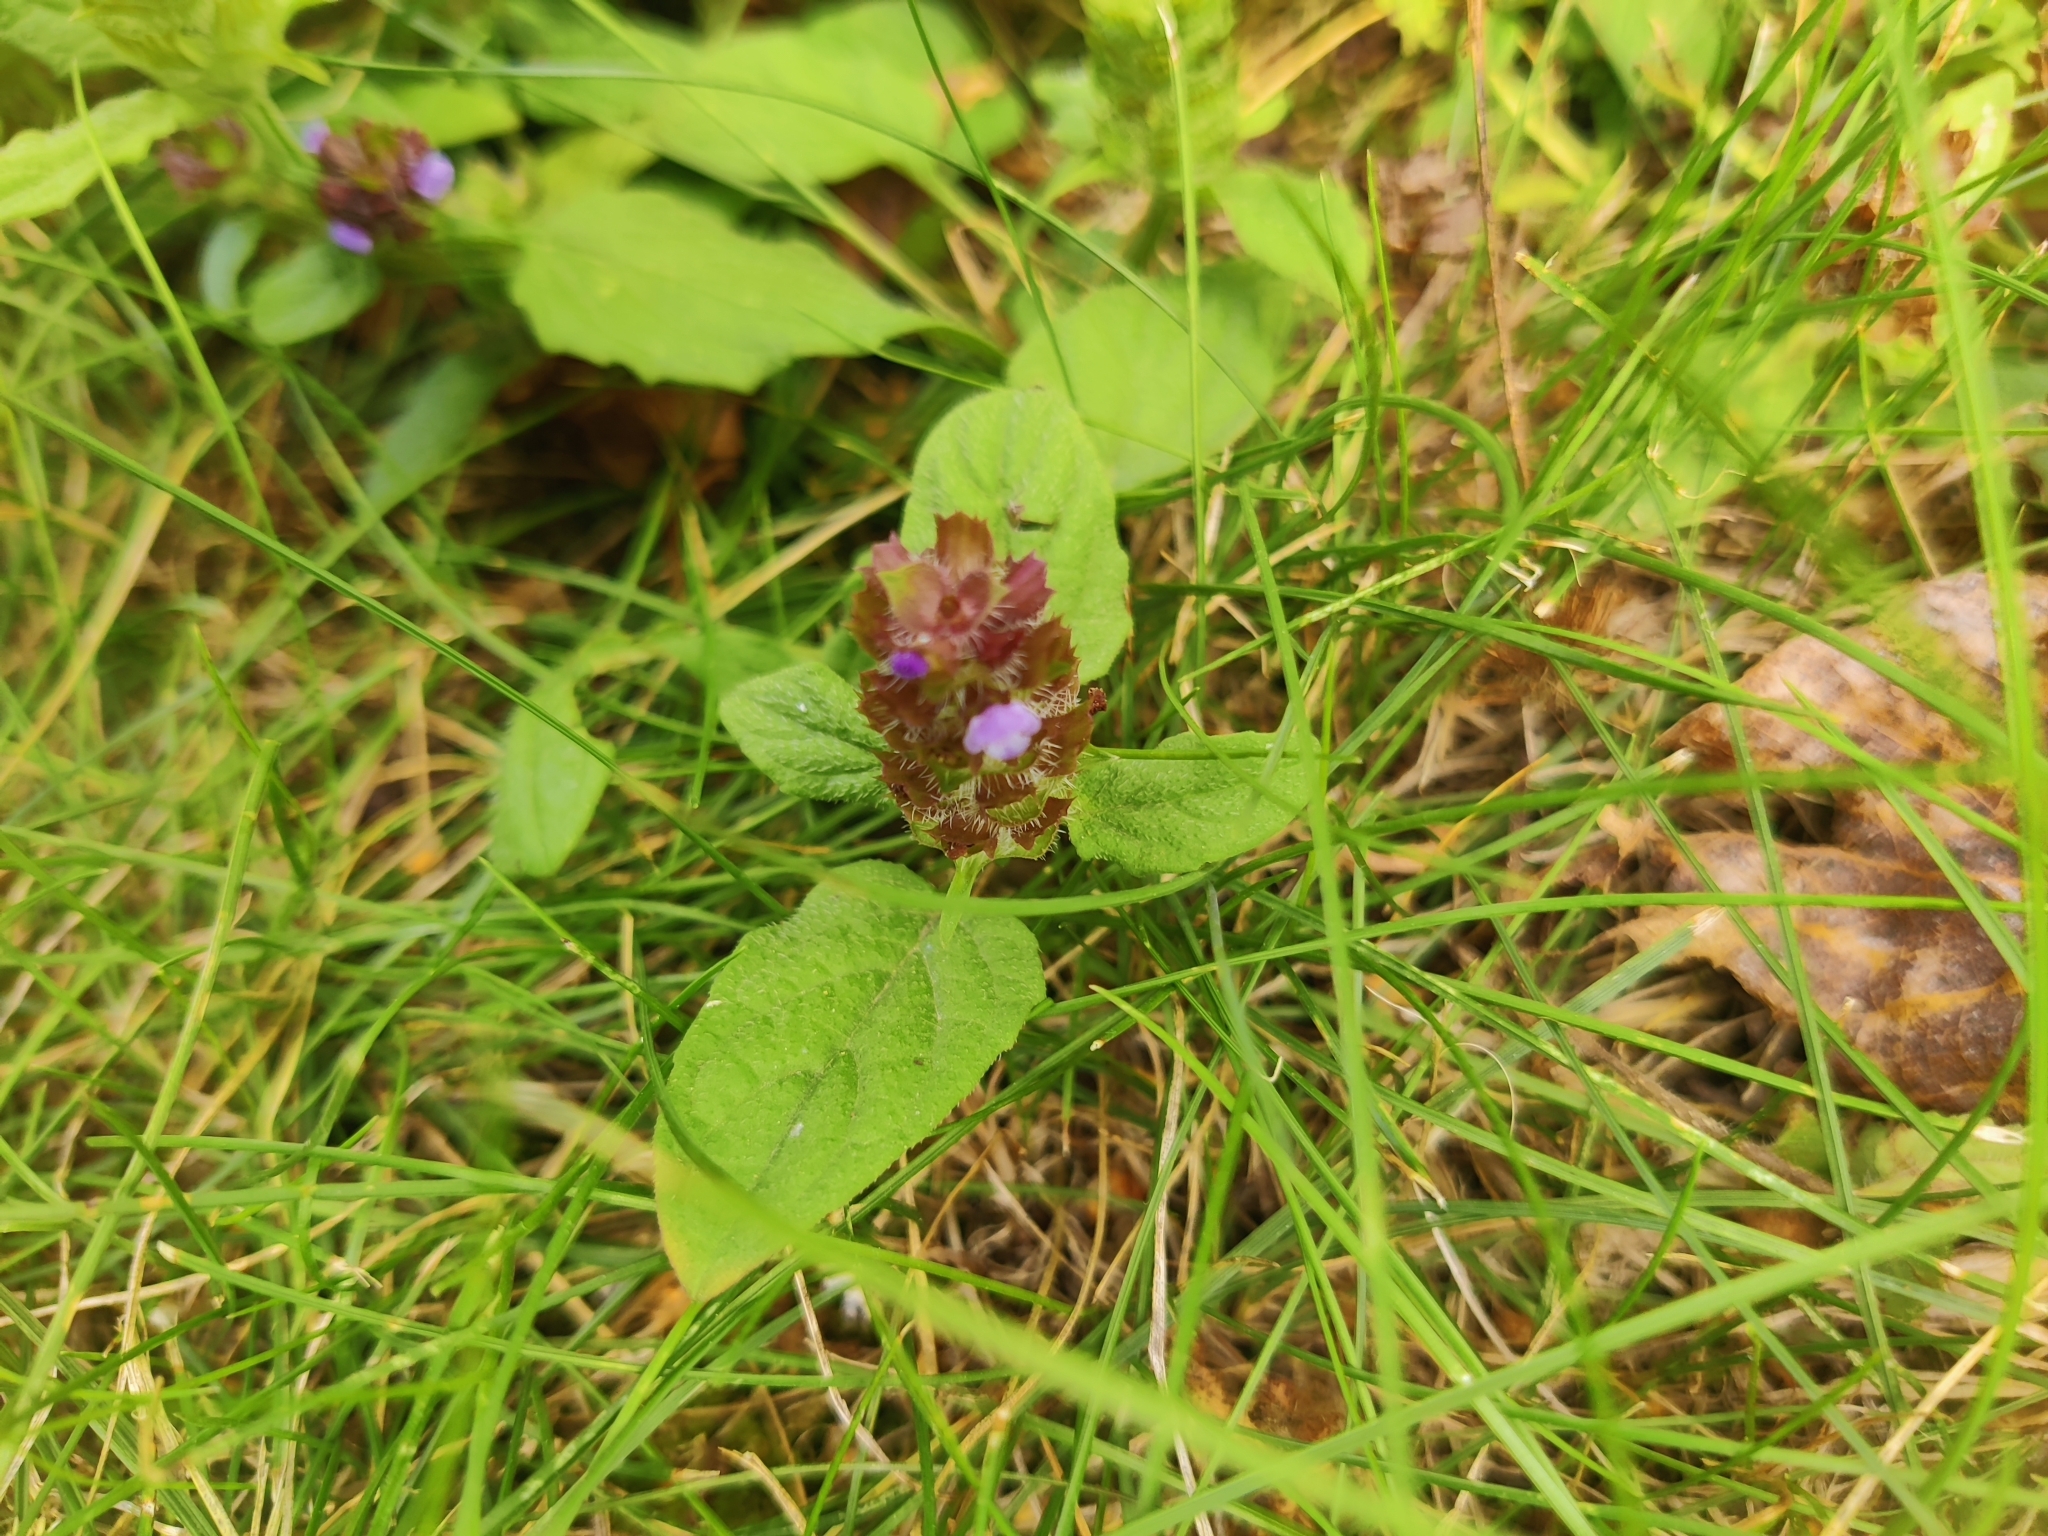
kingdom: Plantae
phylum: Tracheophyta
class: Magnoliopsida
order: Lamiales
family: Lamiaceae
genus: Prunella
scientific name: Prunella vulgaris
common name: Heal-all
